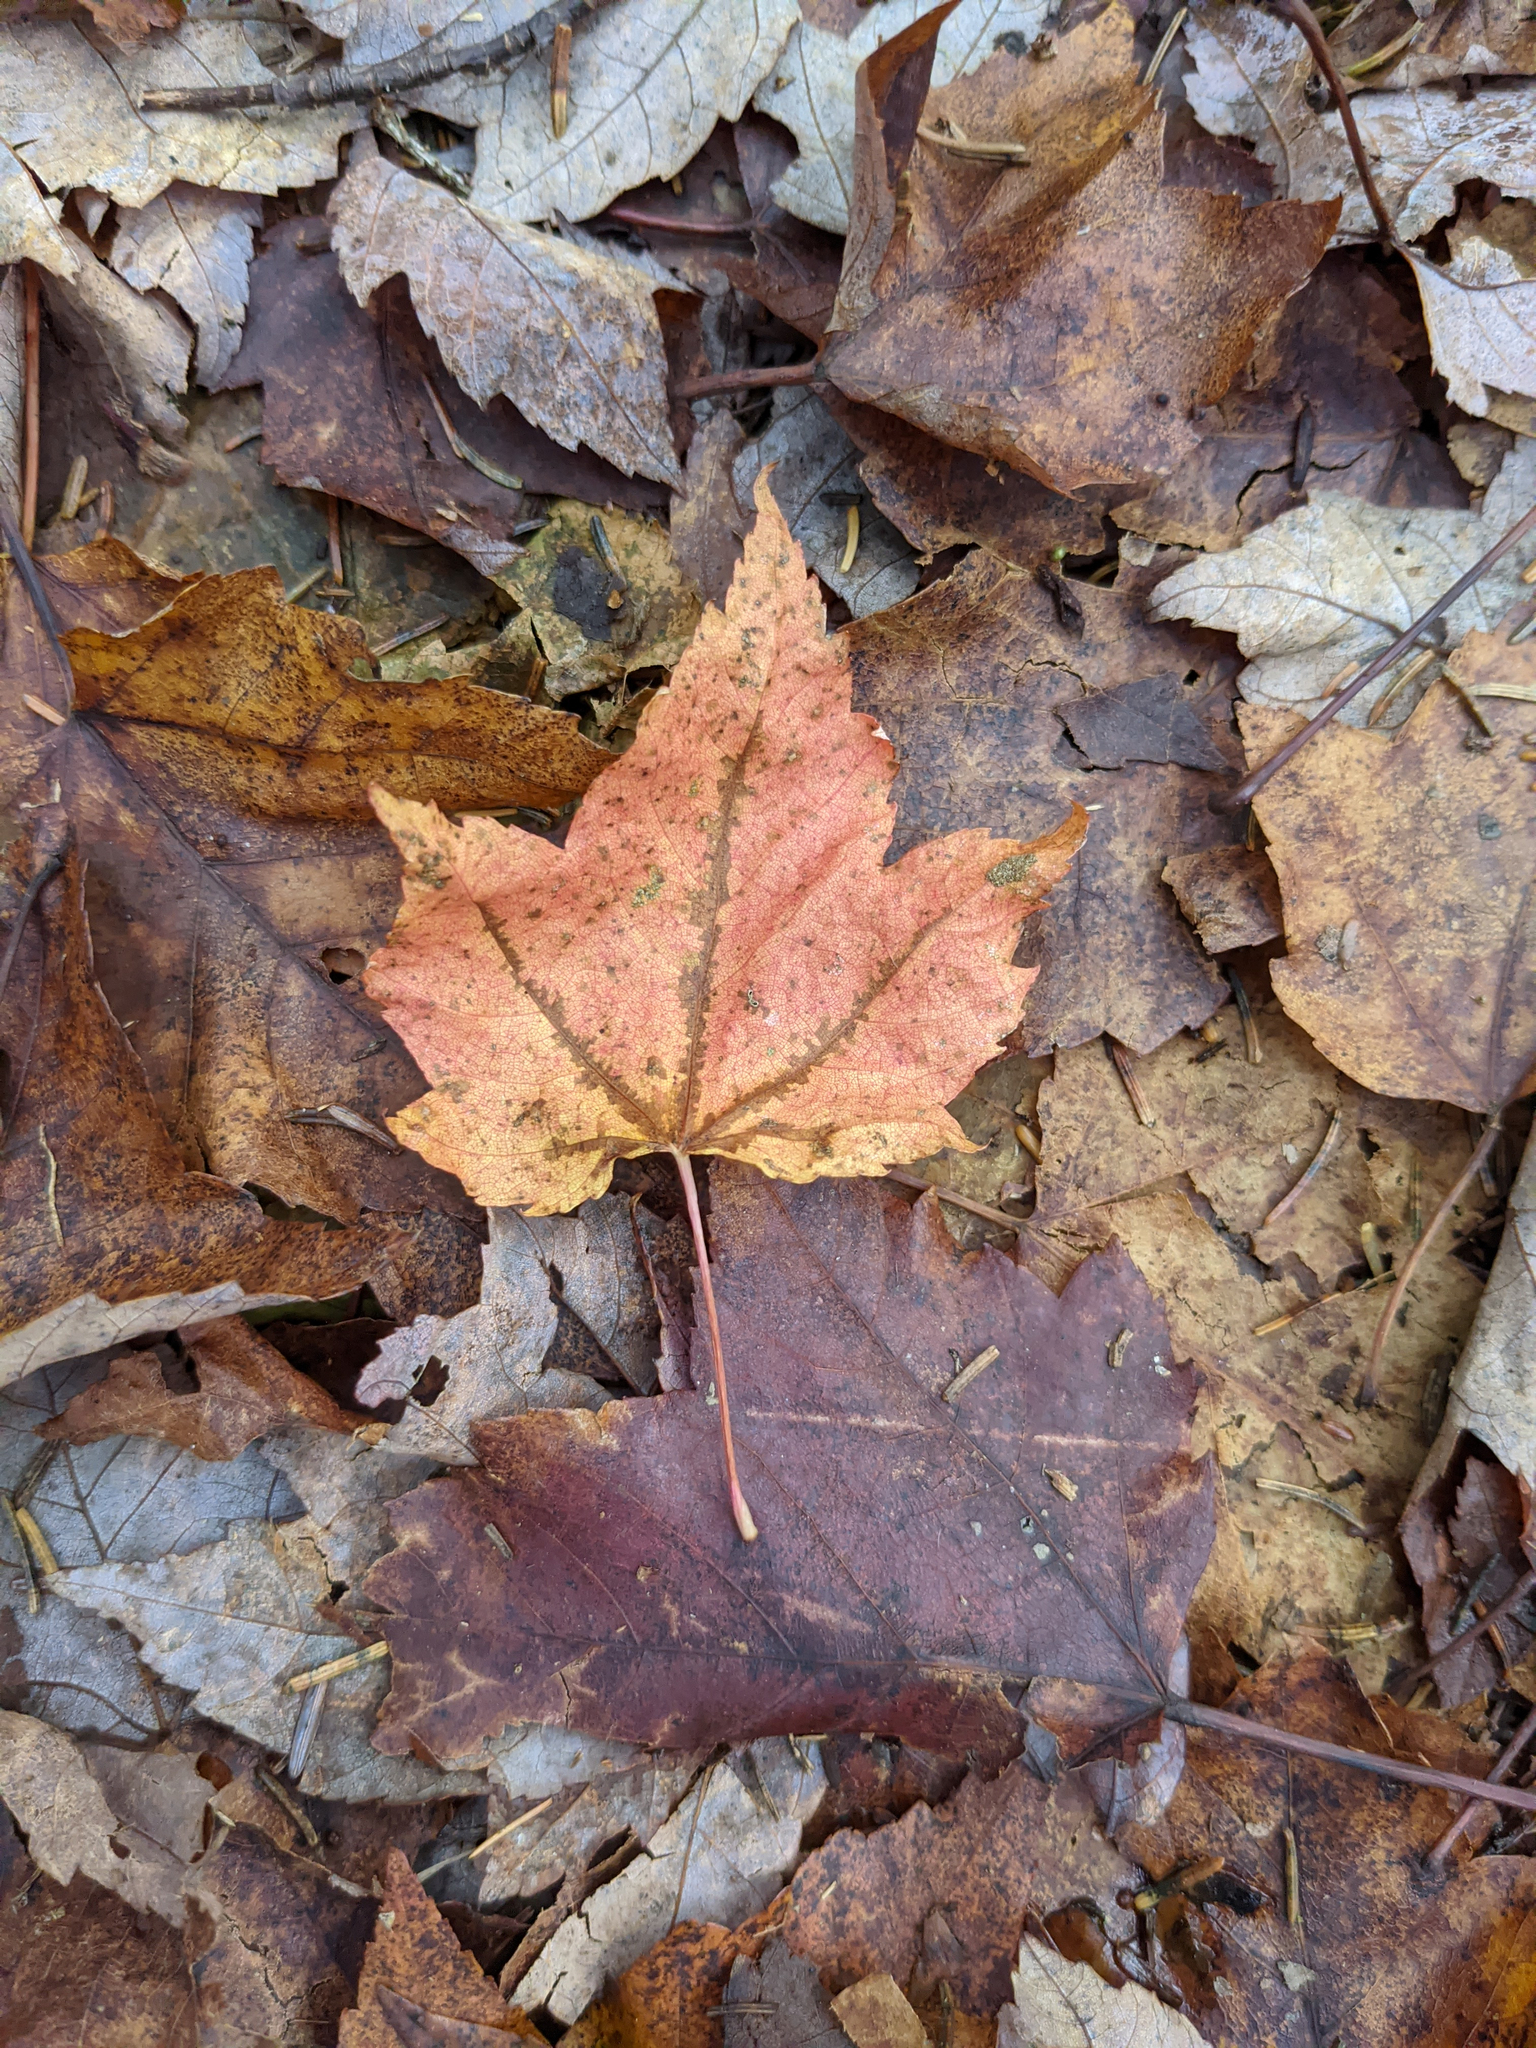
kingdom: Plantae
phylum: Tracheophyta
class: Magnoliopsida
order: Sapindales
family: Sapindaceae
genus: Acer
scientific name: Acer rubrum
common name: Red maple
